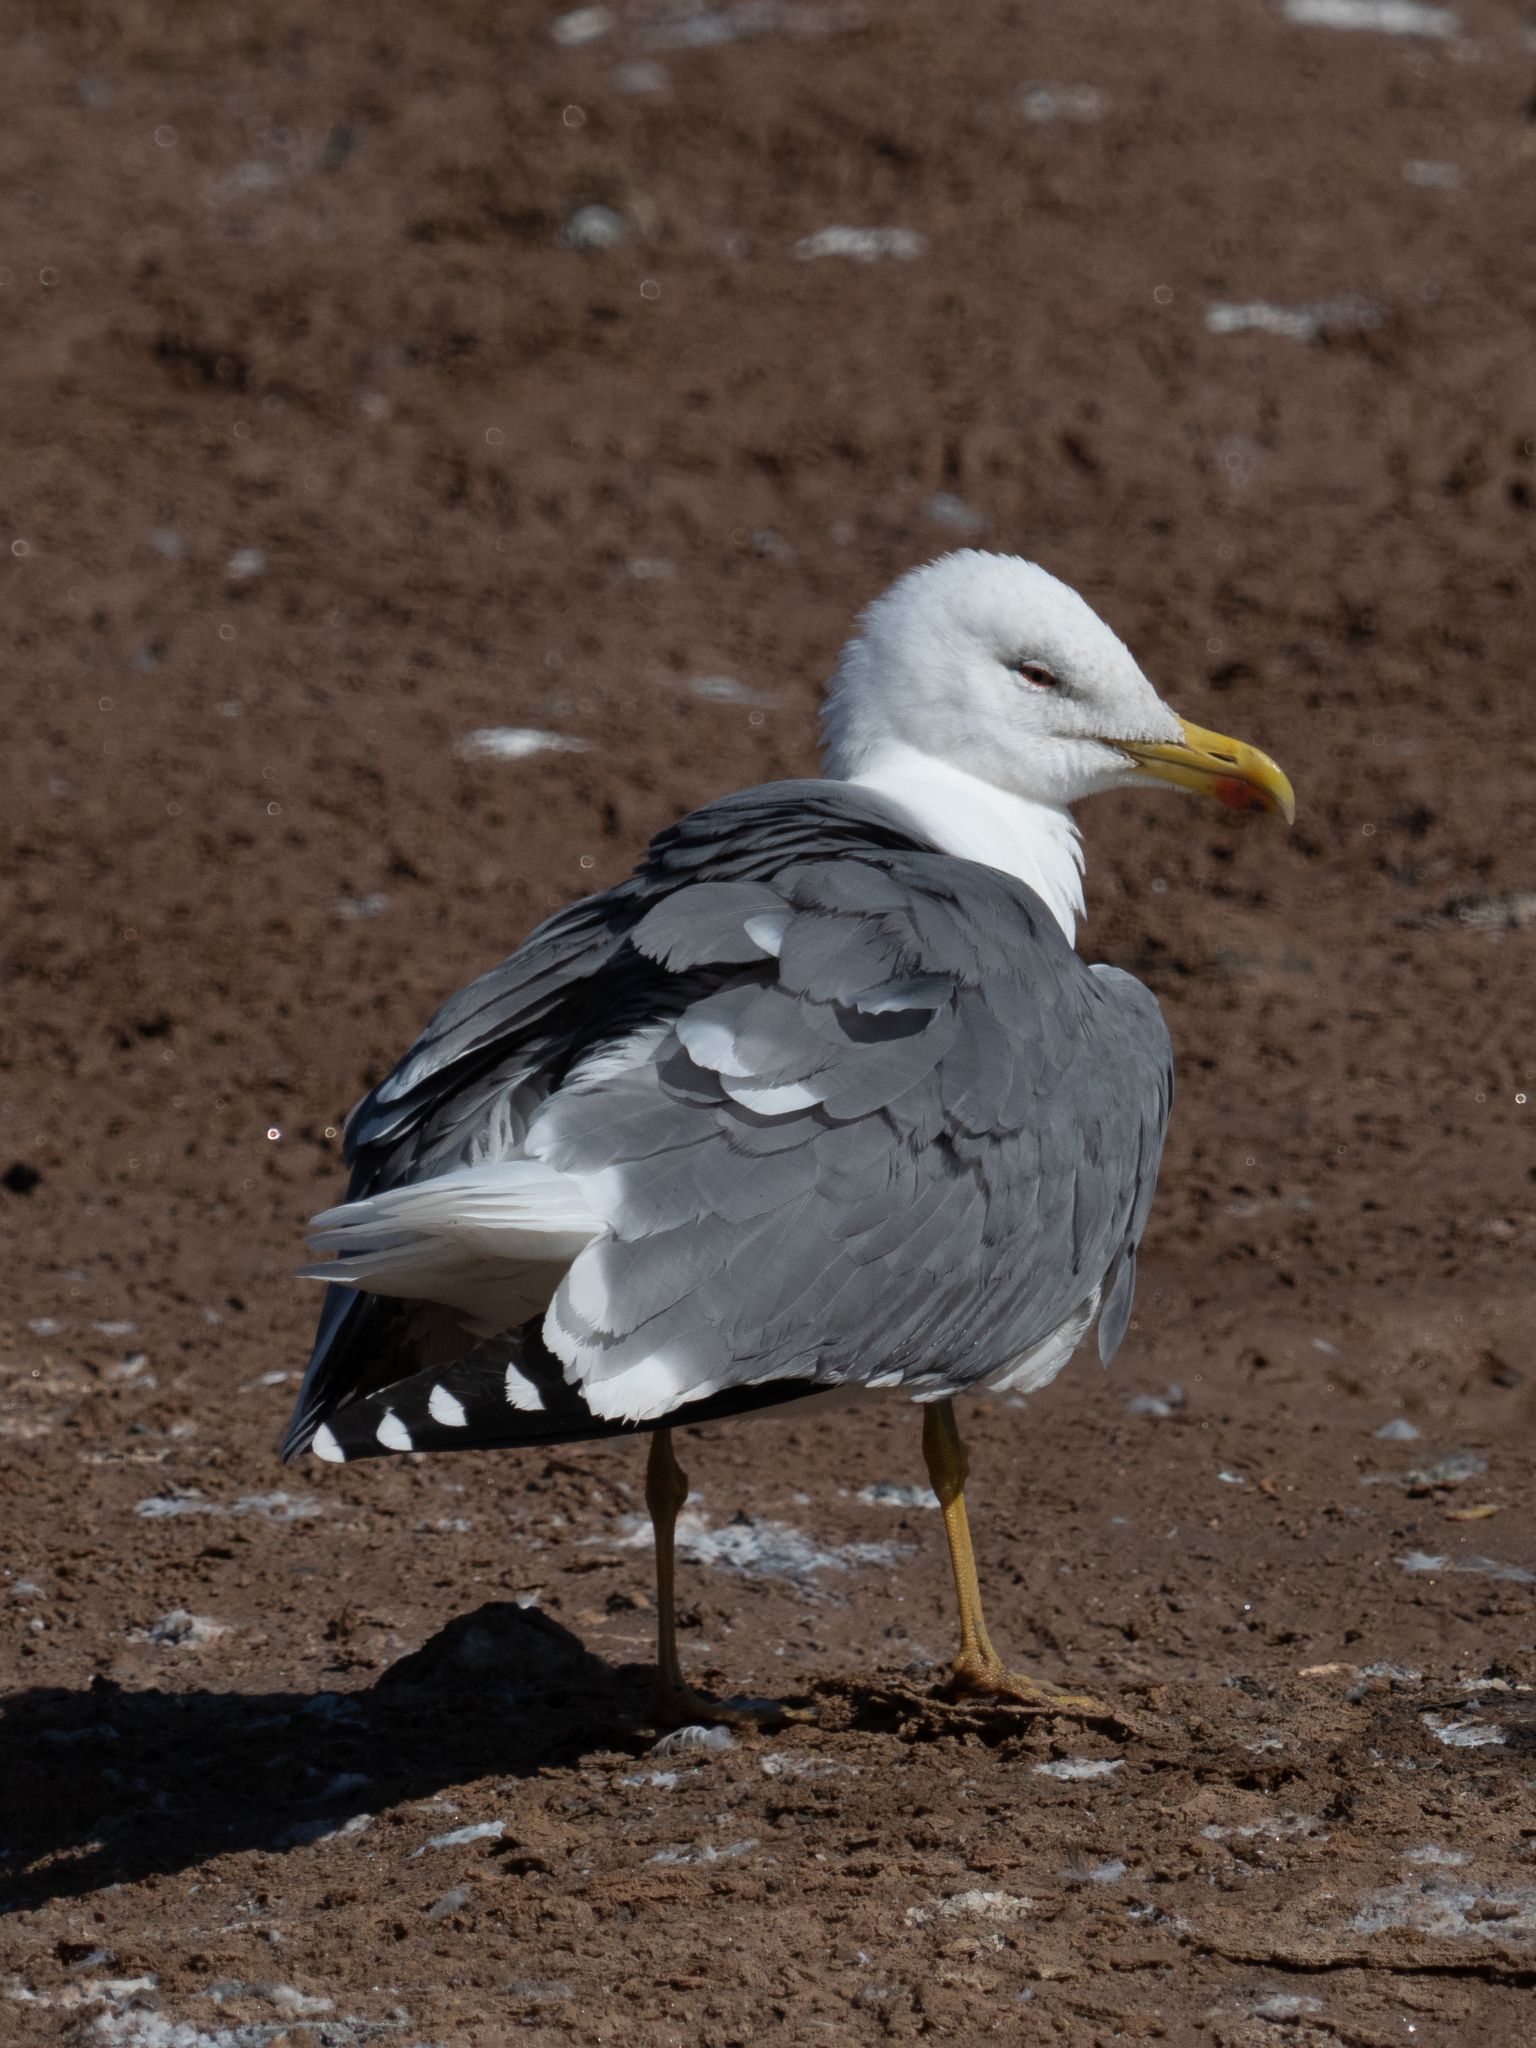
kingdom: Animalia
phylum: Chordata
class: Aves
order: Charadriiformes
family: Laridae
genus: Larus
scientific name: Larus michahellis
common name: Yellow-legged gull
